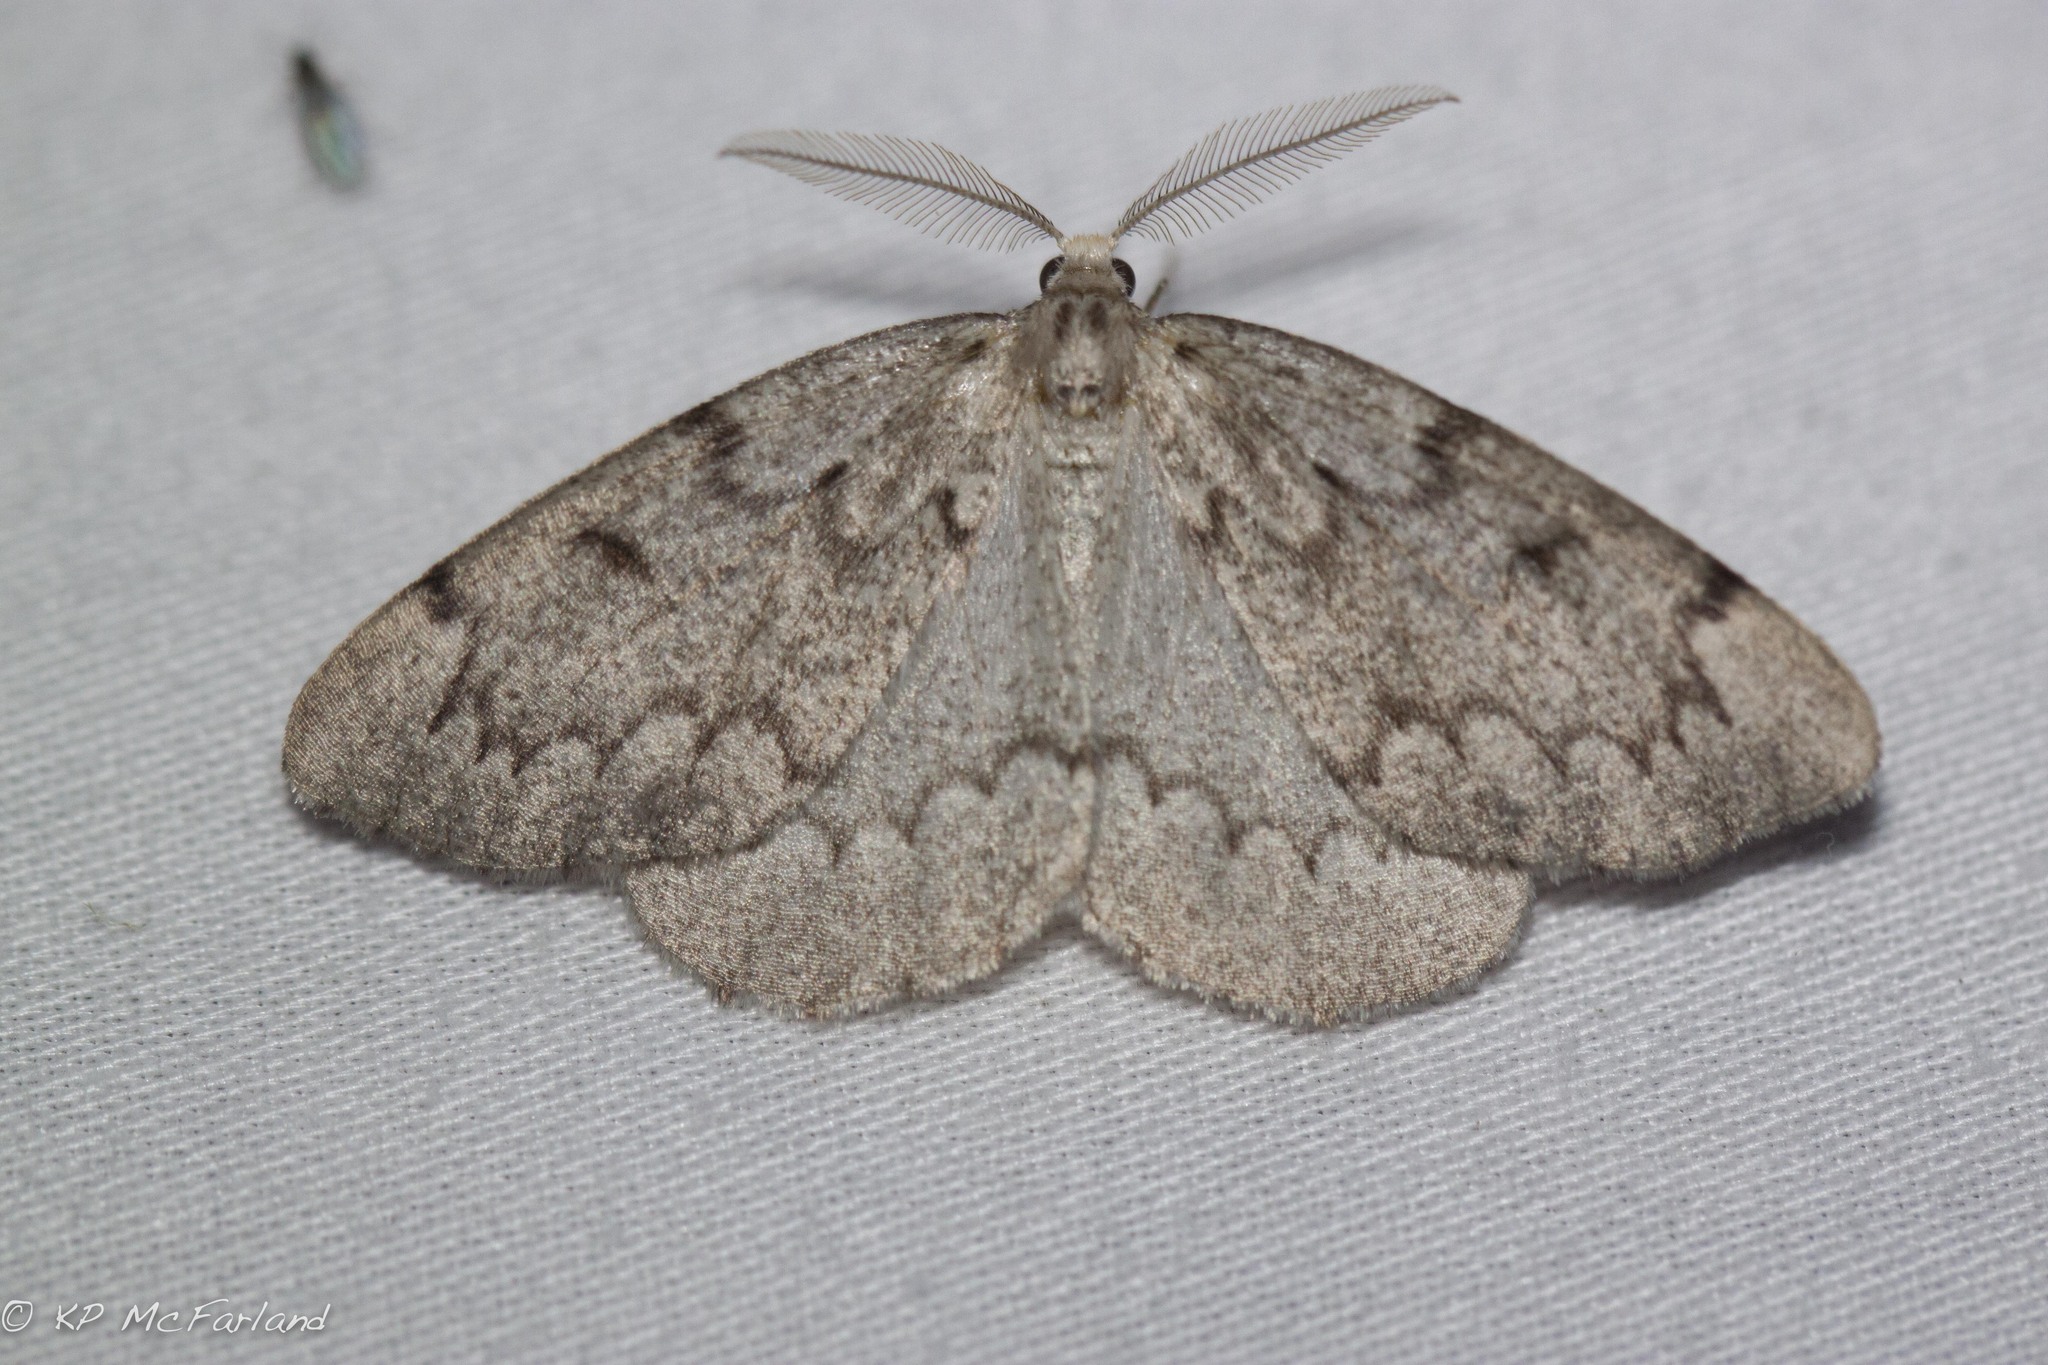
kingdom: Animalia
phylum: Arthropoda
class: Insecta
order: Lepidoptera
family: Geometridae
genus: Nepytia
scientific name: Nepytia canosaria
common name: False hemlock looper
